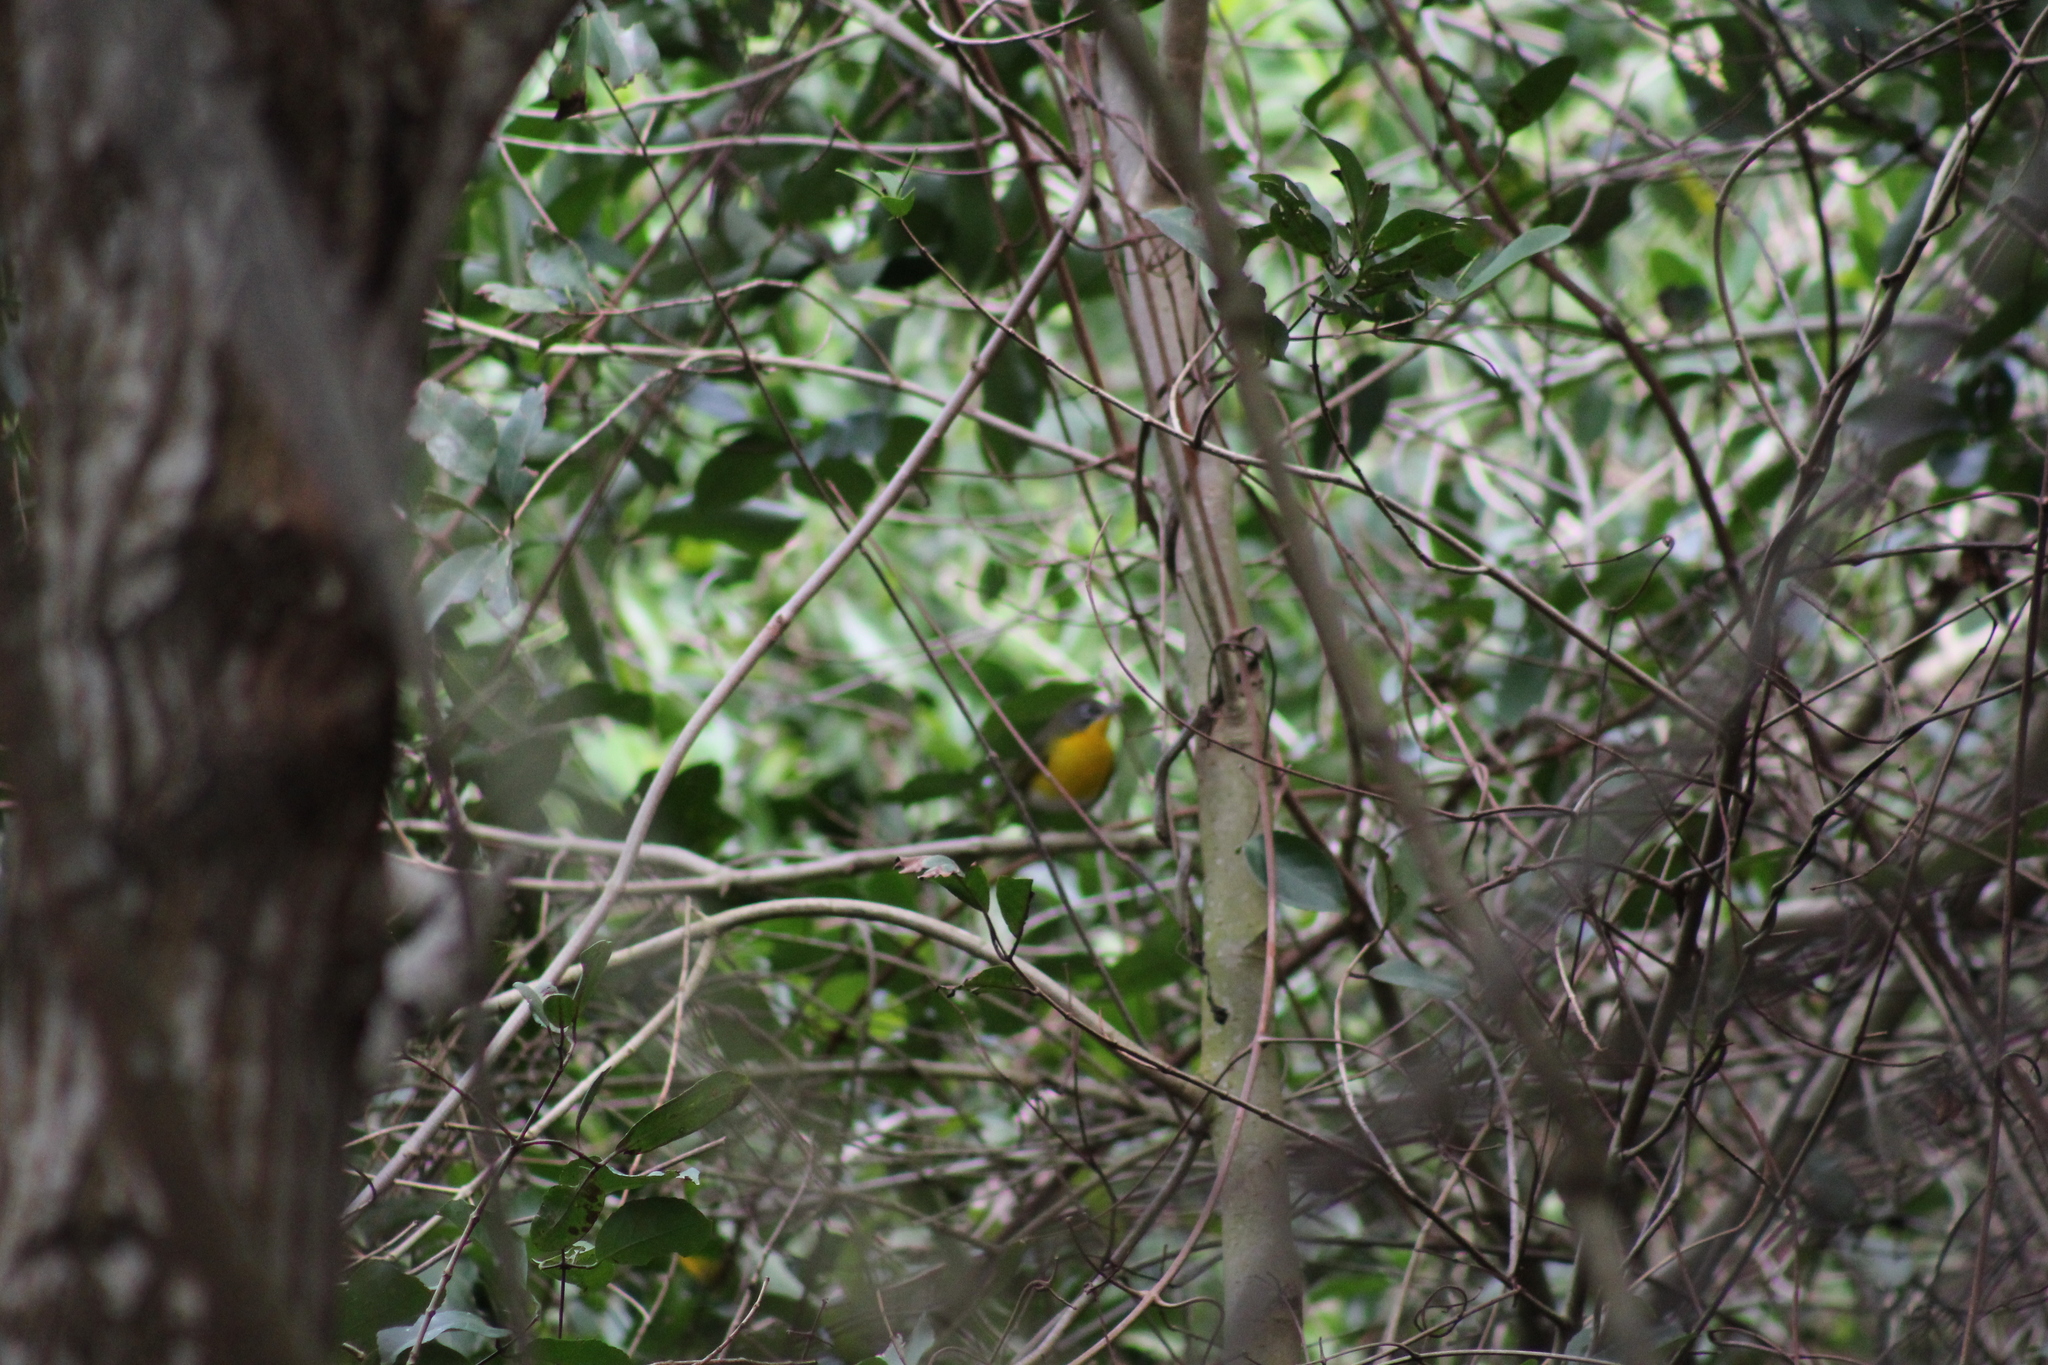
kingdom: Animalia
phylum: Chordata
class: Aves
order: Passeriformes
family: Parulidae
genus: Icteria
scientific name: Icteria virens
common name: Yellow-breasted chat
